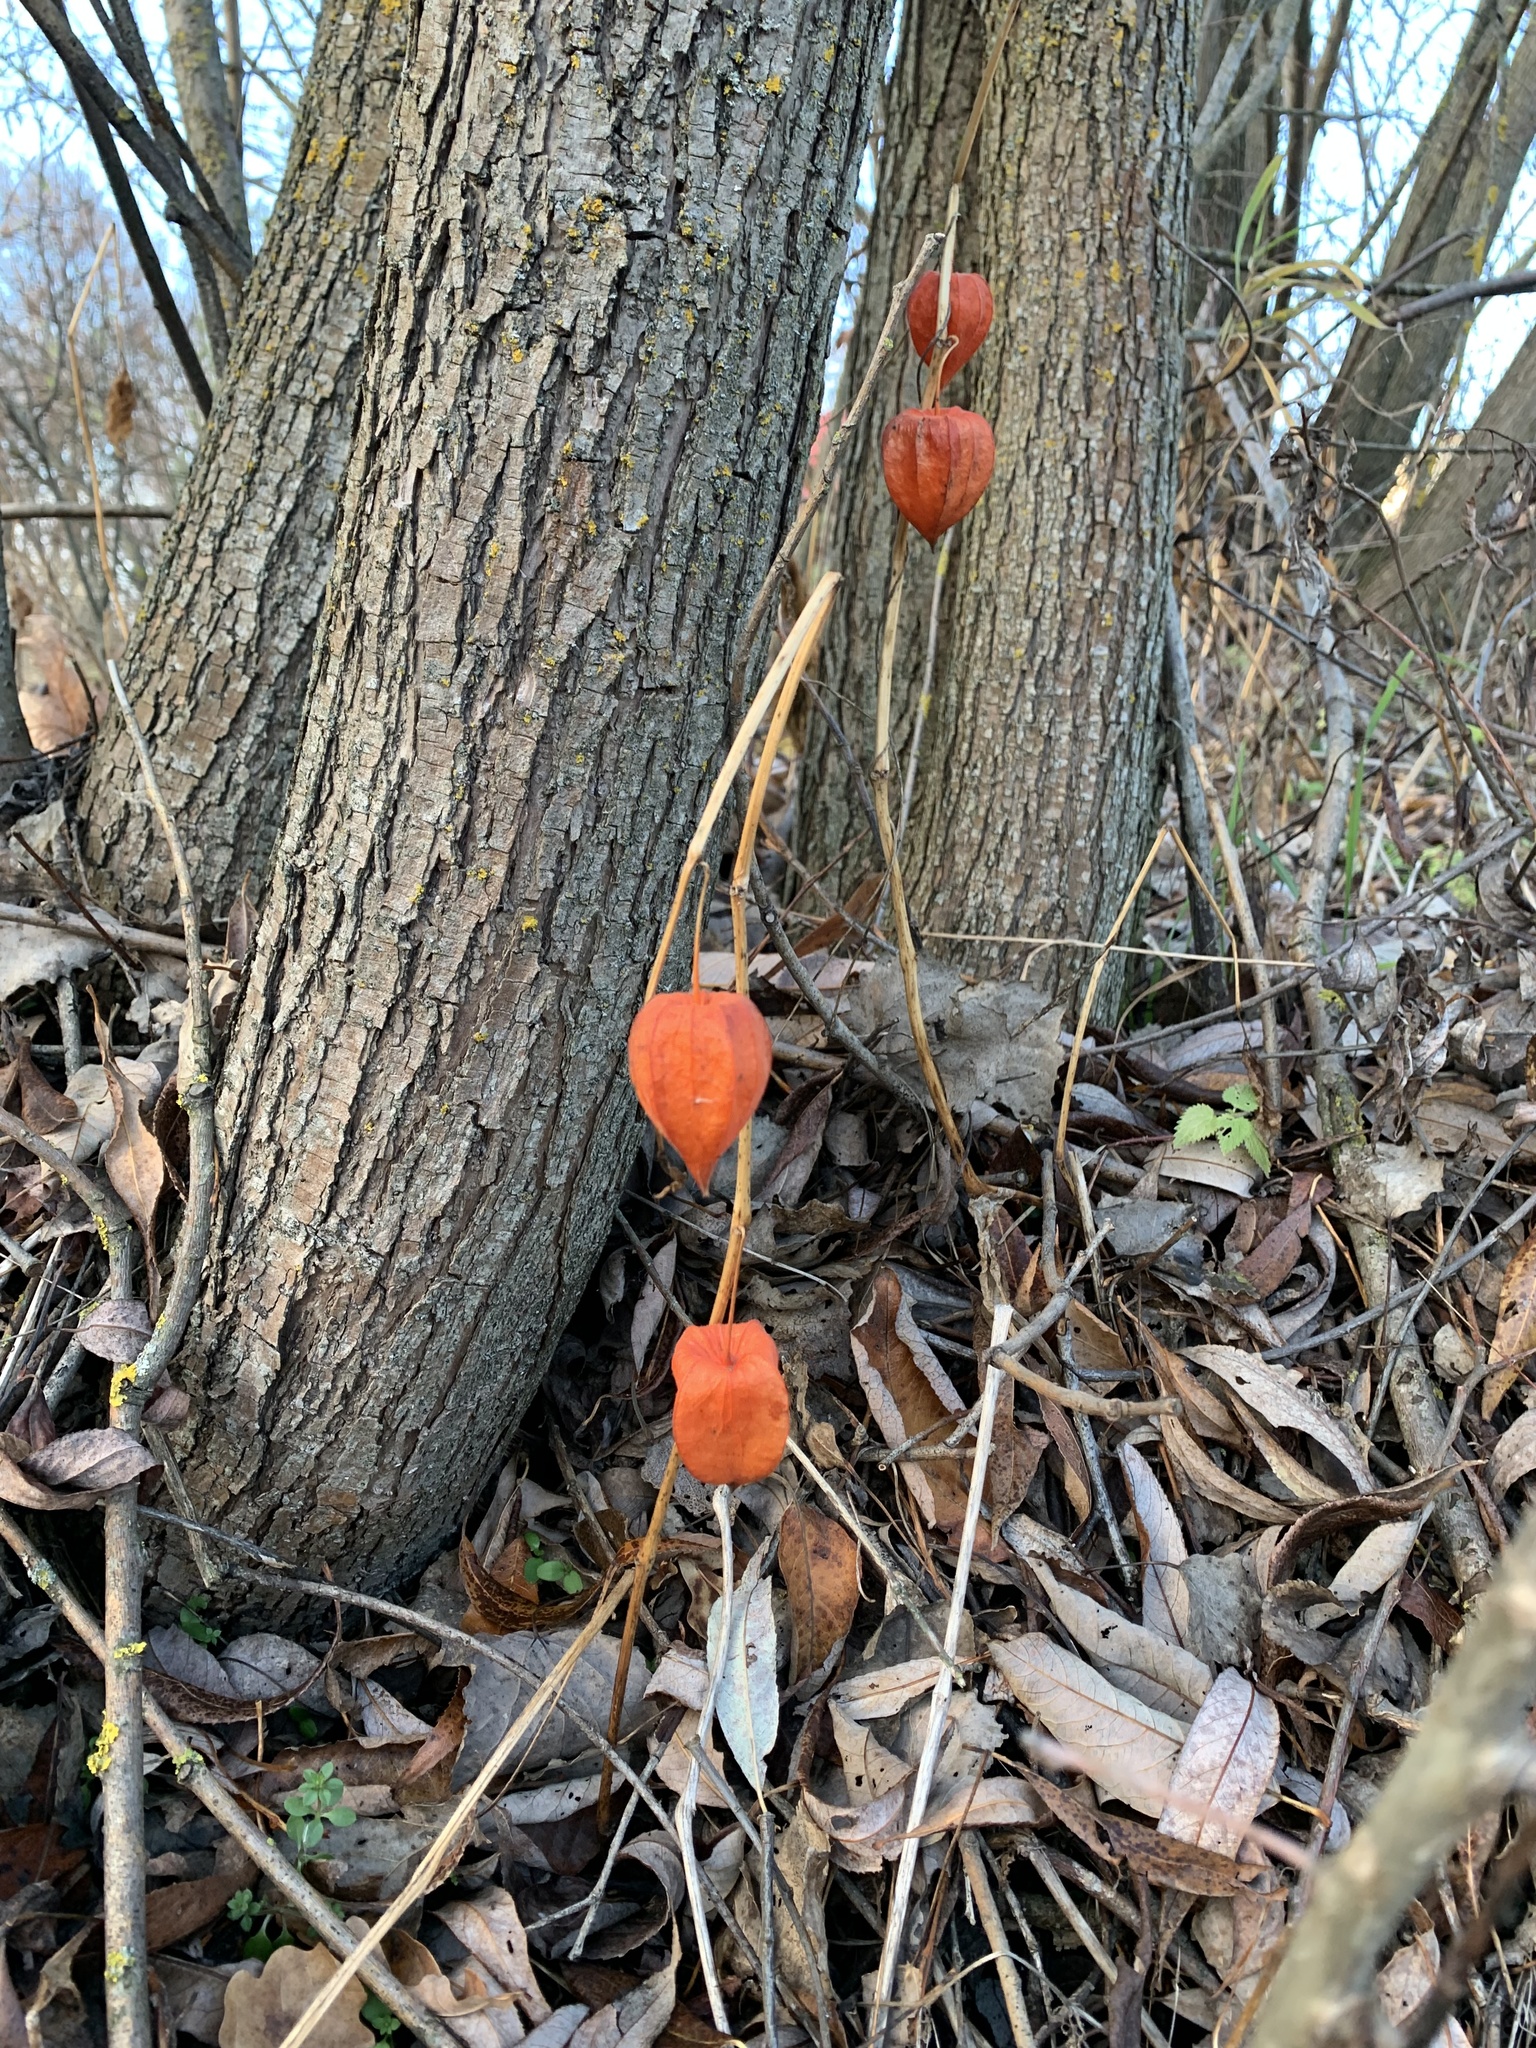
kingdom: Plantae
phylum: Tracheophyta
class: Magnoliopsida
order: Solanales
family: Solanaceae
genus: Alkekengi
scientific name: Alkekengi officinarum
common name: Japanese-lantern
